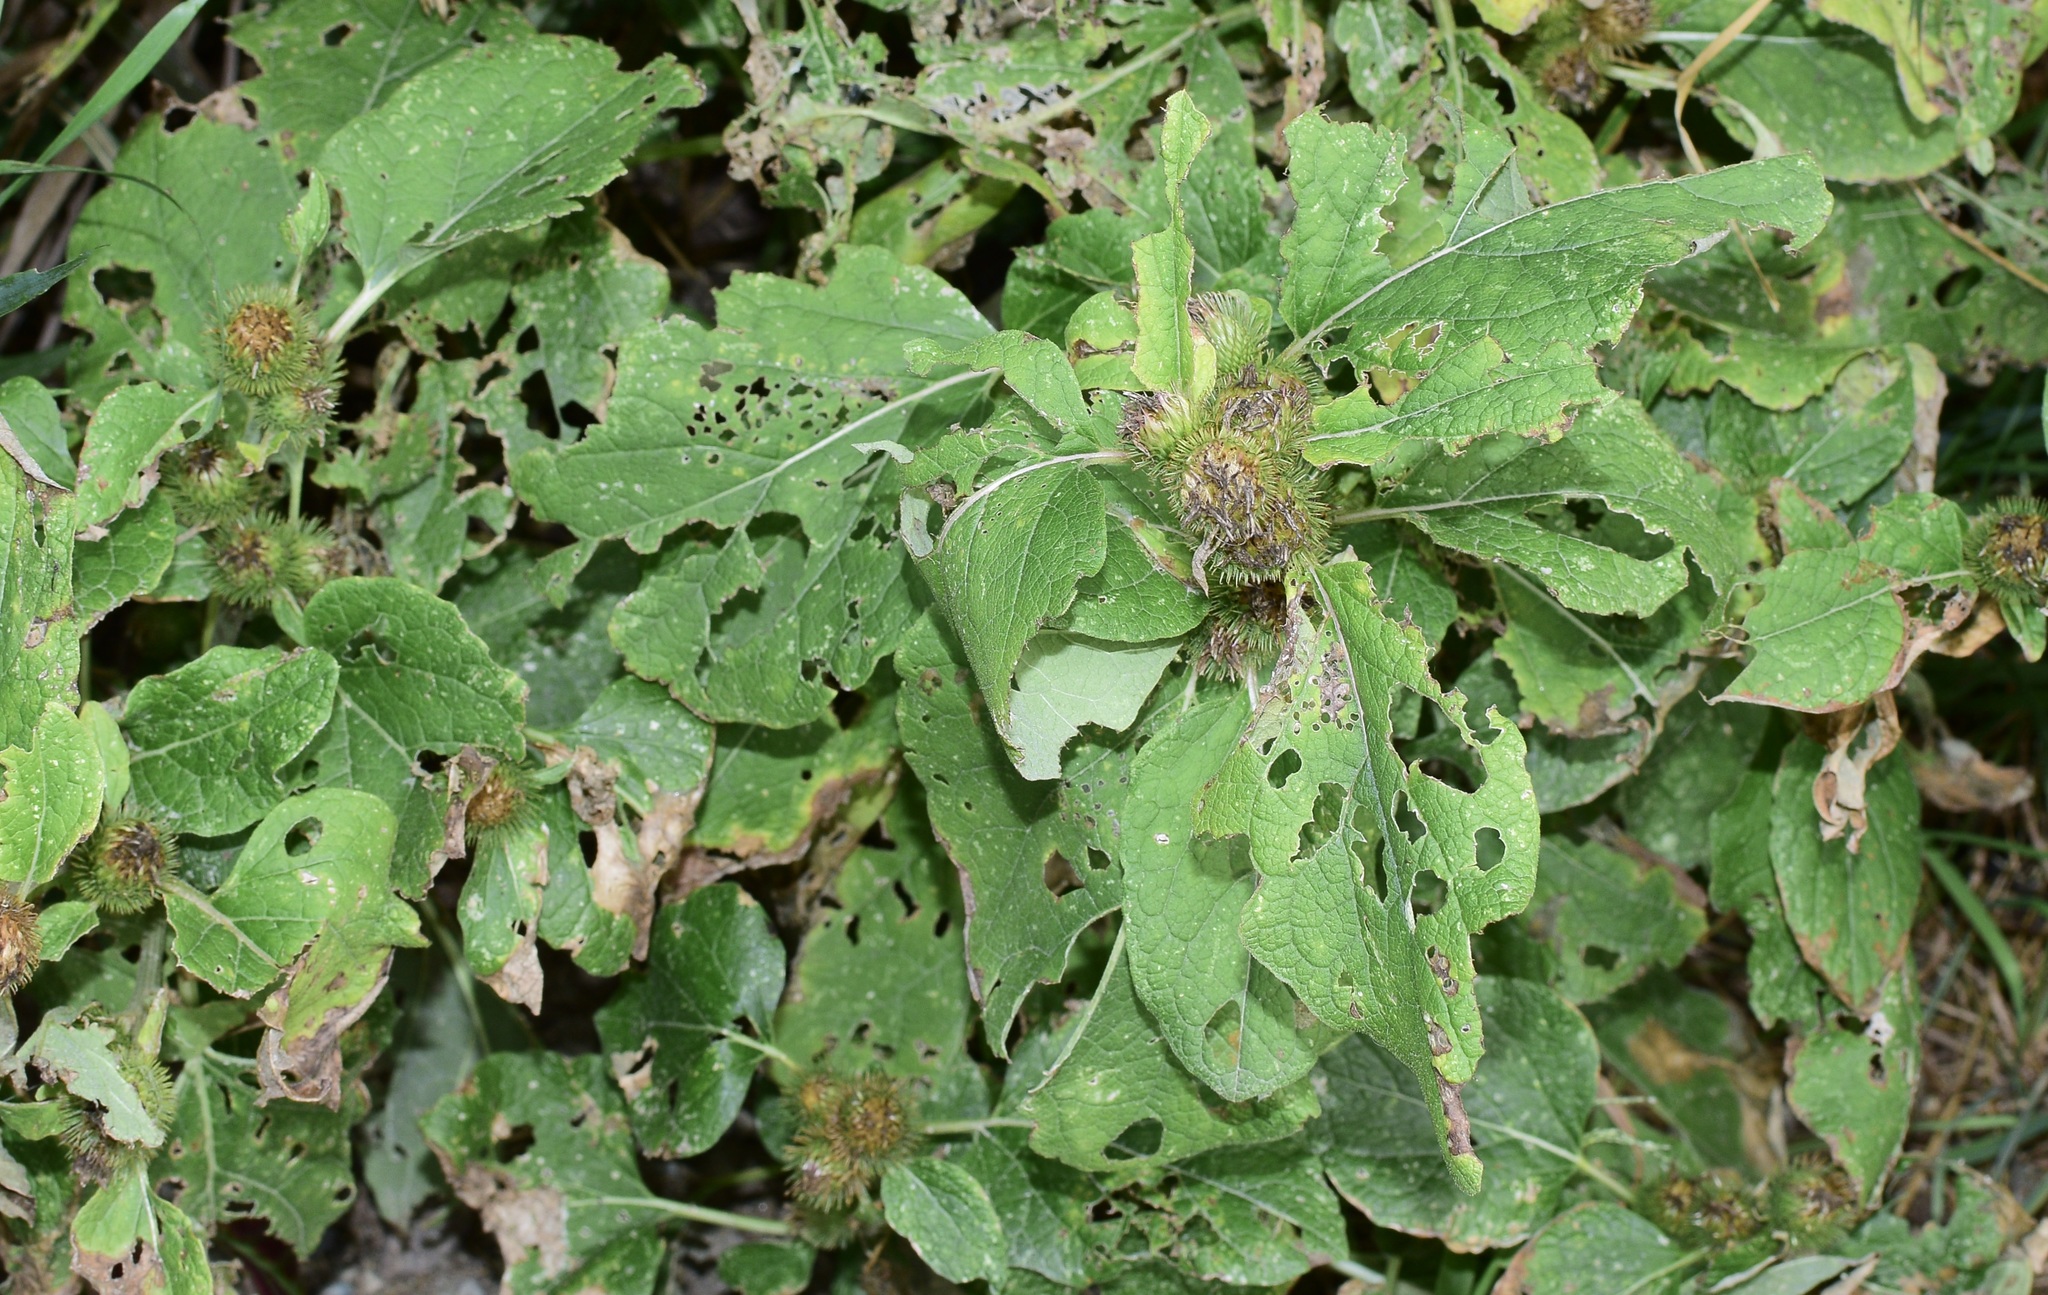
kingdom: Plantae
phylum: Tracheophyta
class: Magnoliopsida
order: Asterales
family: Asteraceae
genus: Arctium
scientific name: Arctium minus
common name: Lesser burdock
